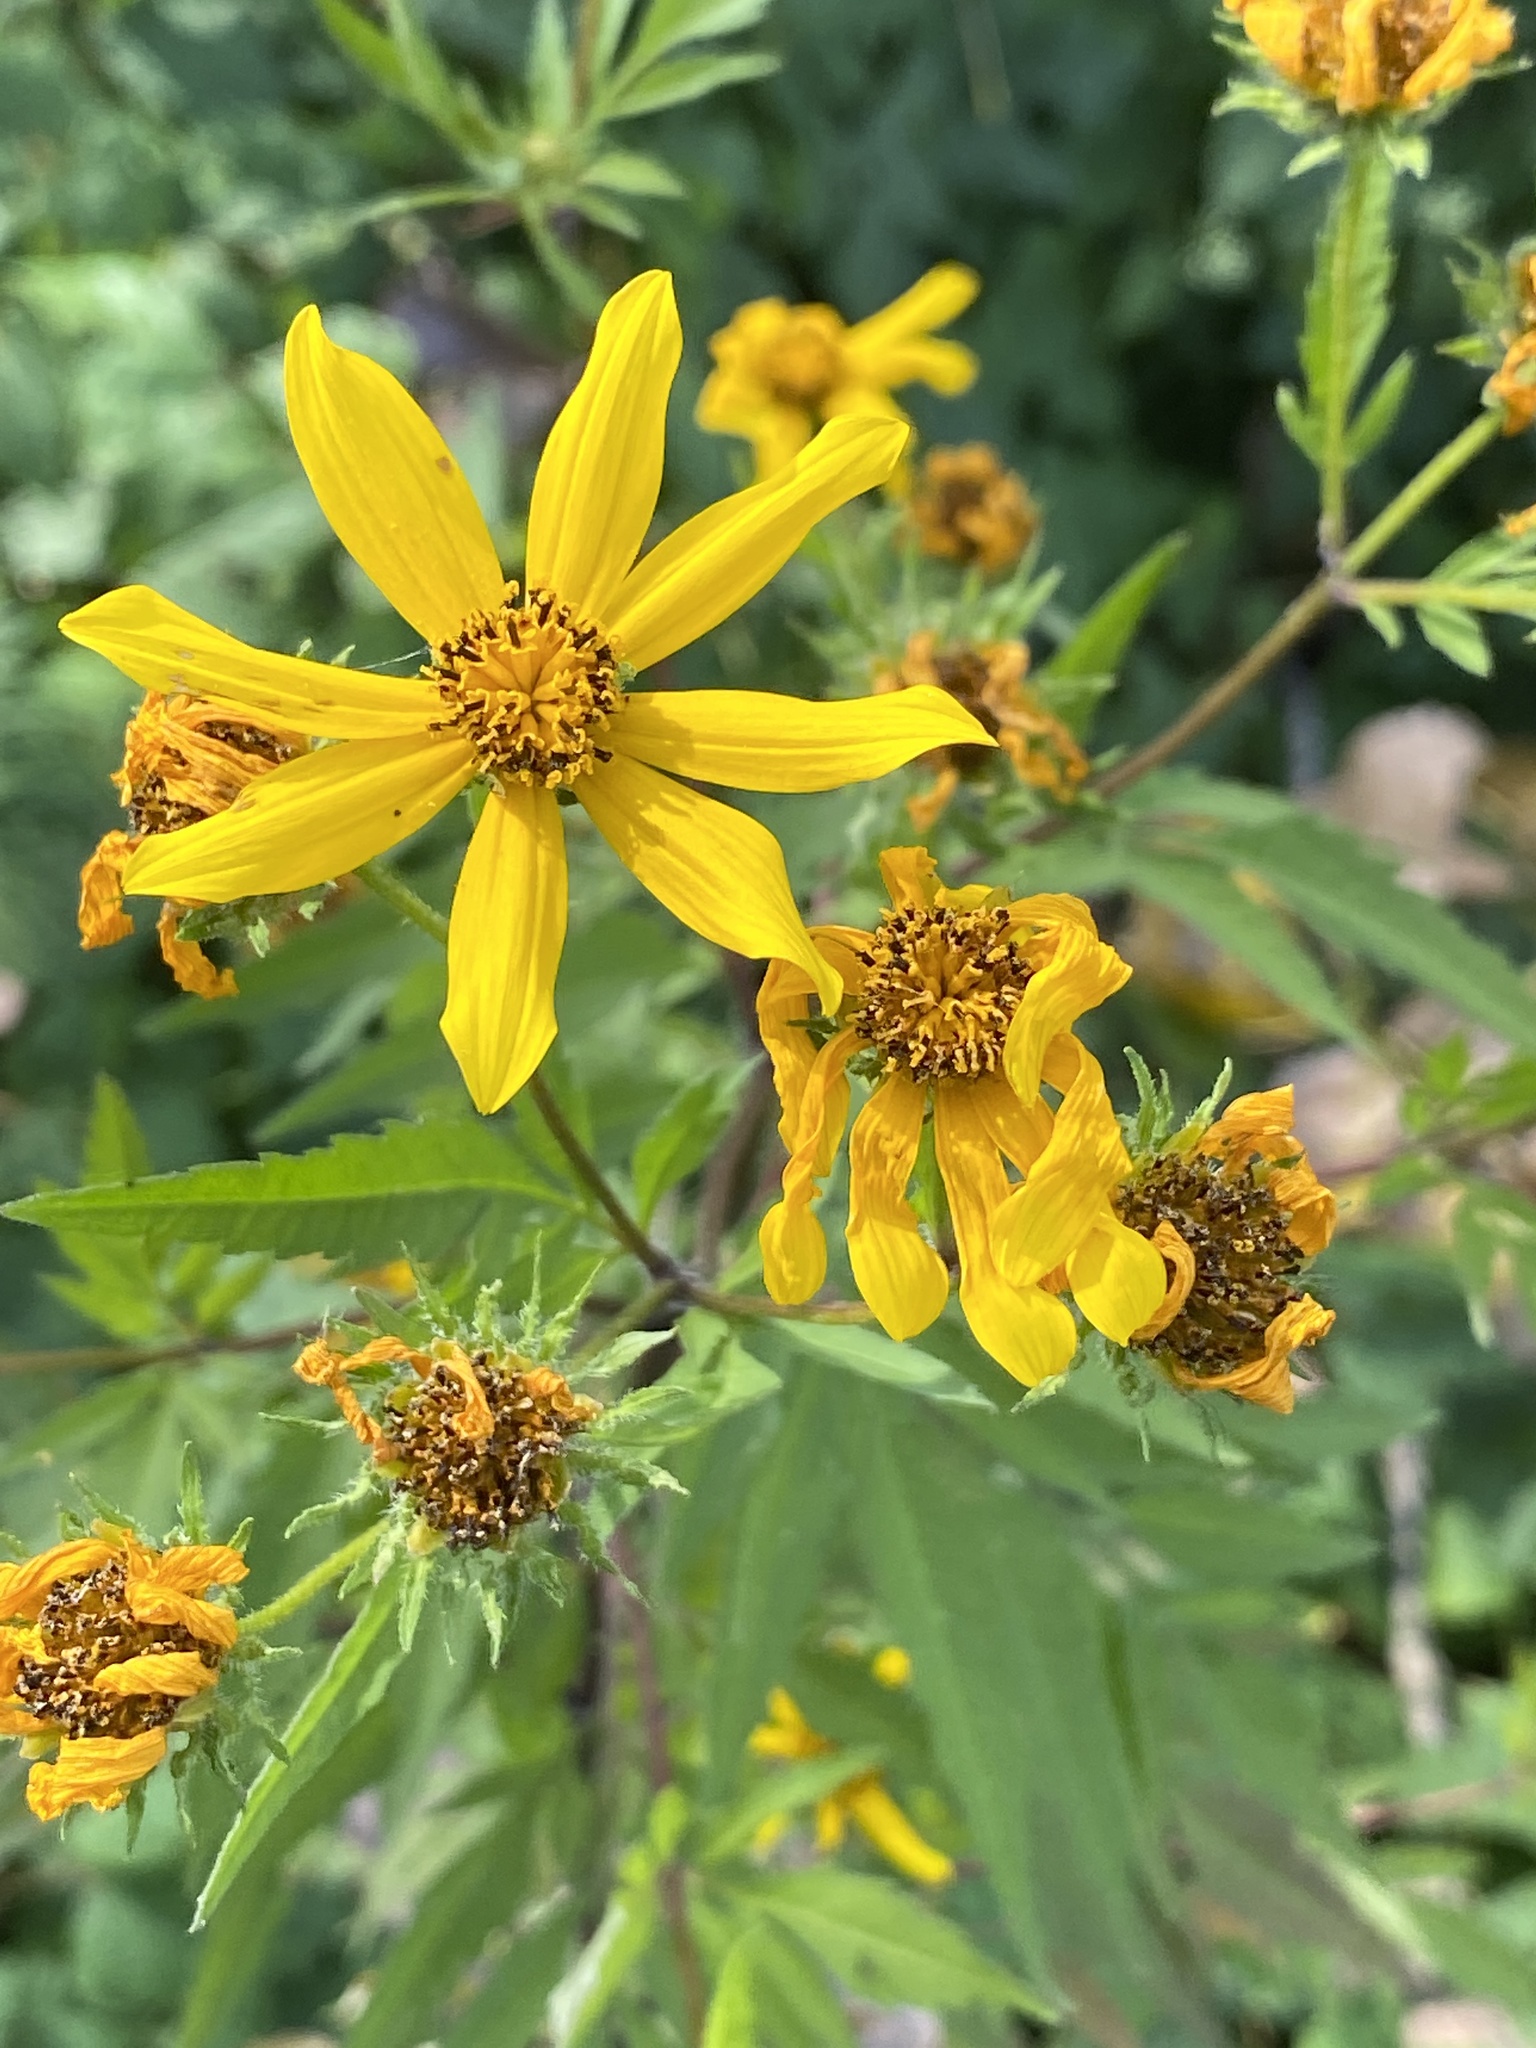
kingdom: Plantae
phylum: Tracheophyta
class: Magnoliopsida
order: Asterales
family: Asteraceae
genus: Bidens
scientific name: Bidens polylepis
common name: Awnless beggarticks
